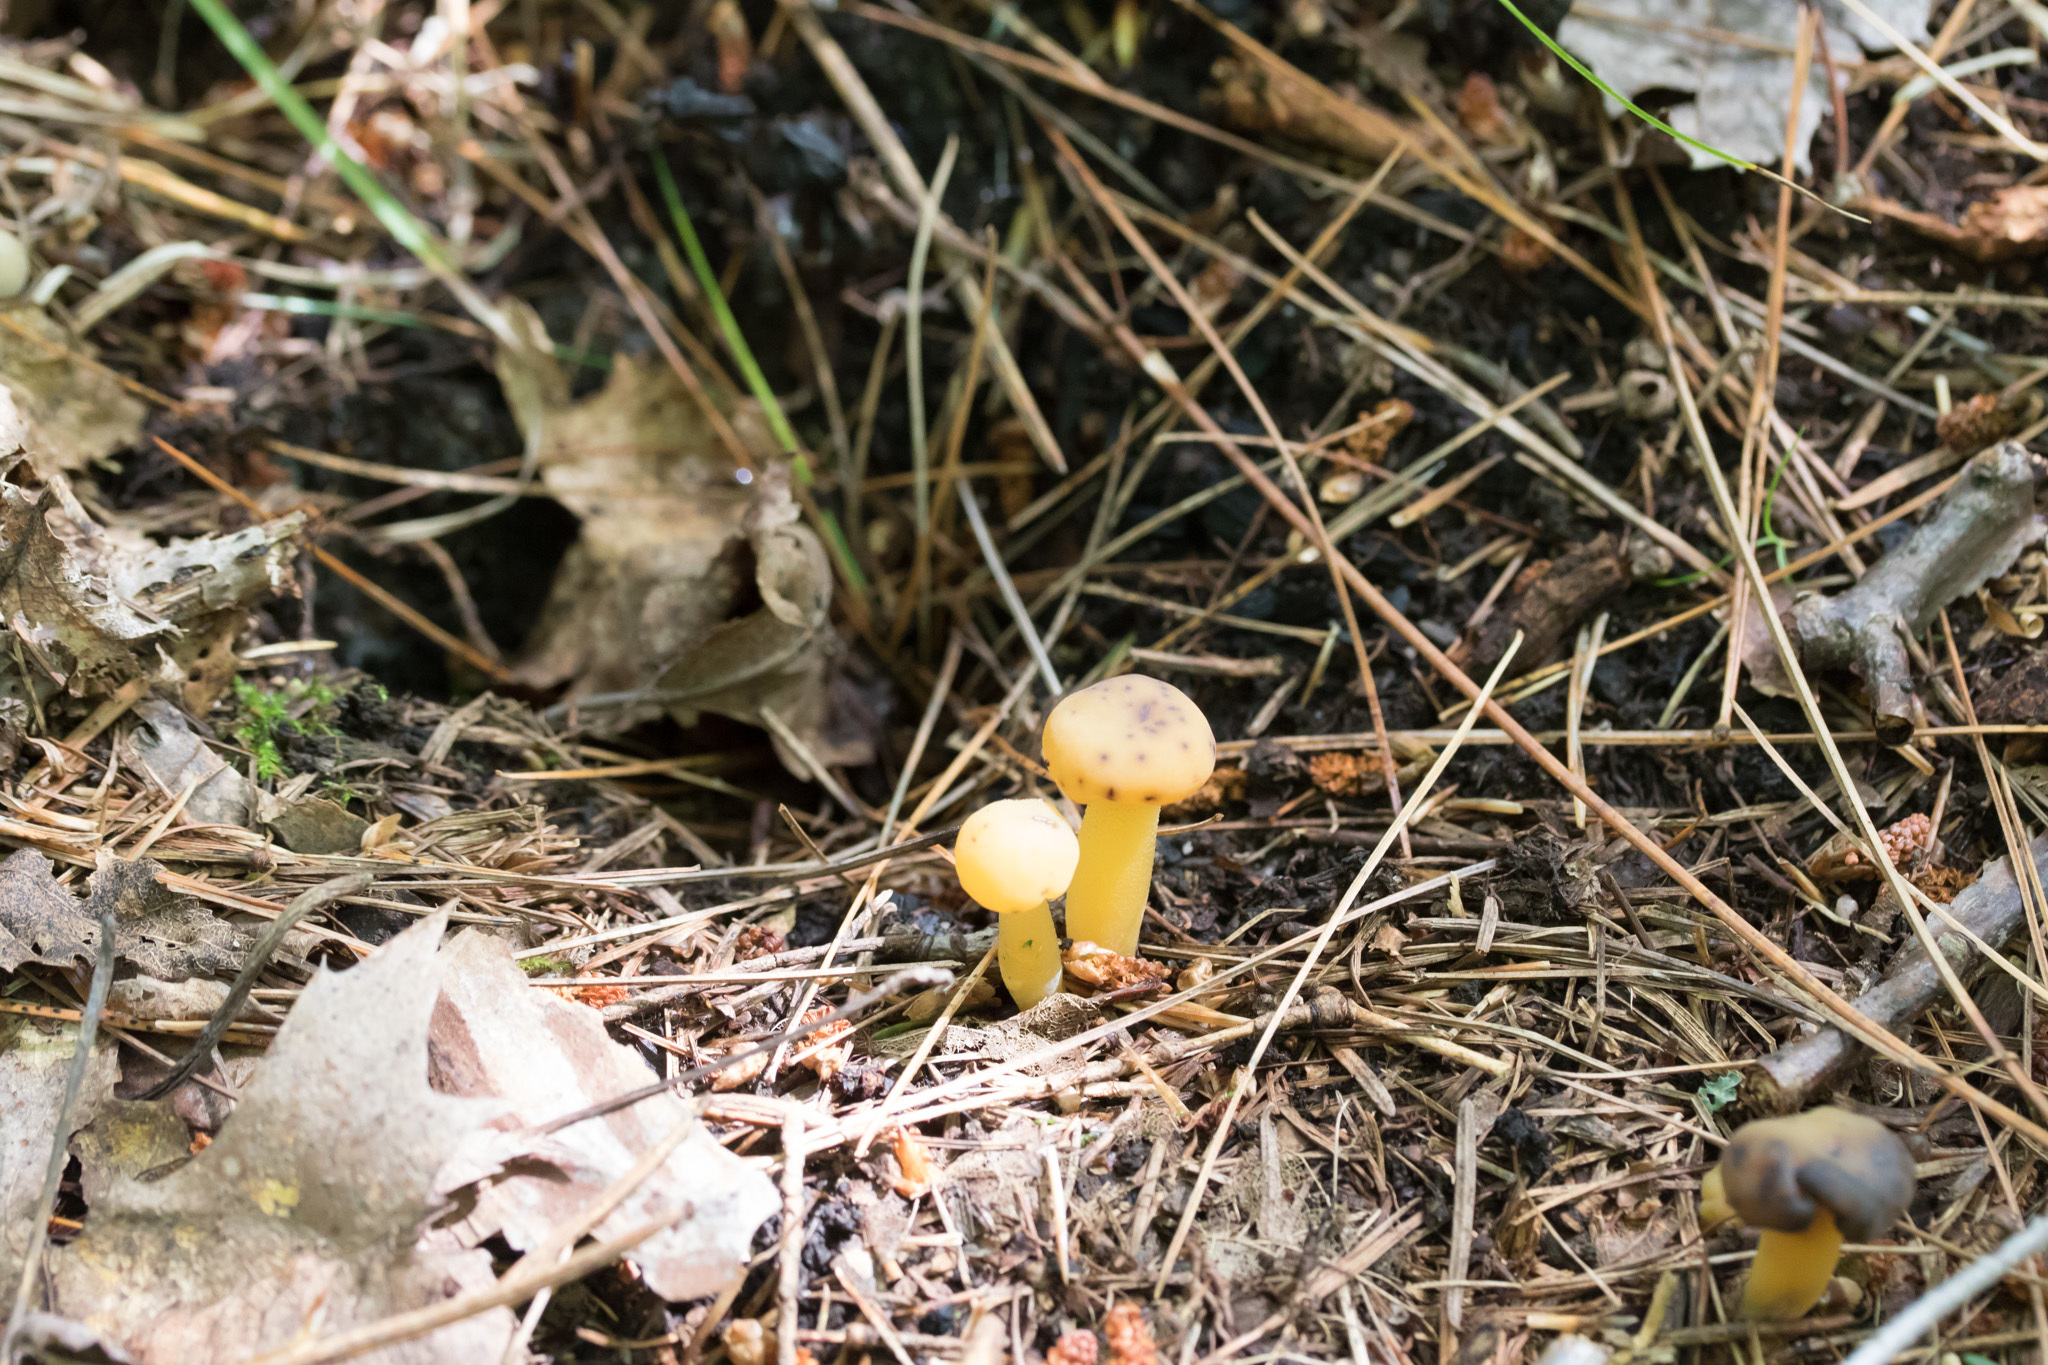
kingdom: Fungi
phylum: Ascomycota
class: Leotiomycetes
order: Leotiales
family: Leotiaceae
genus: Leotia
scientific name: Leotia lubrica
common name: Jellybaby
